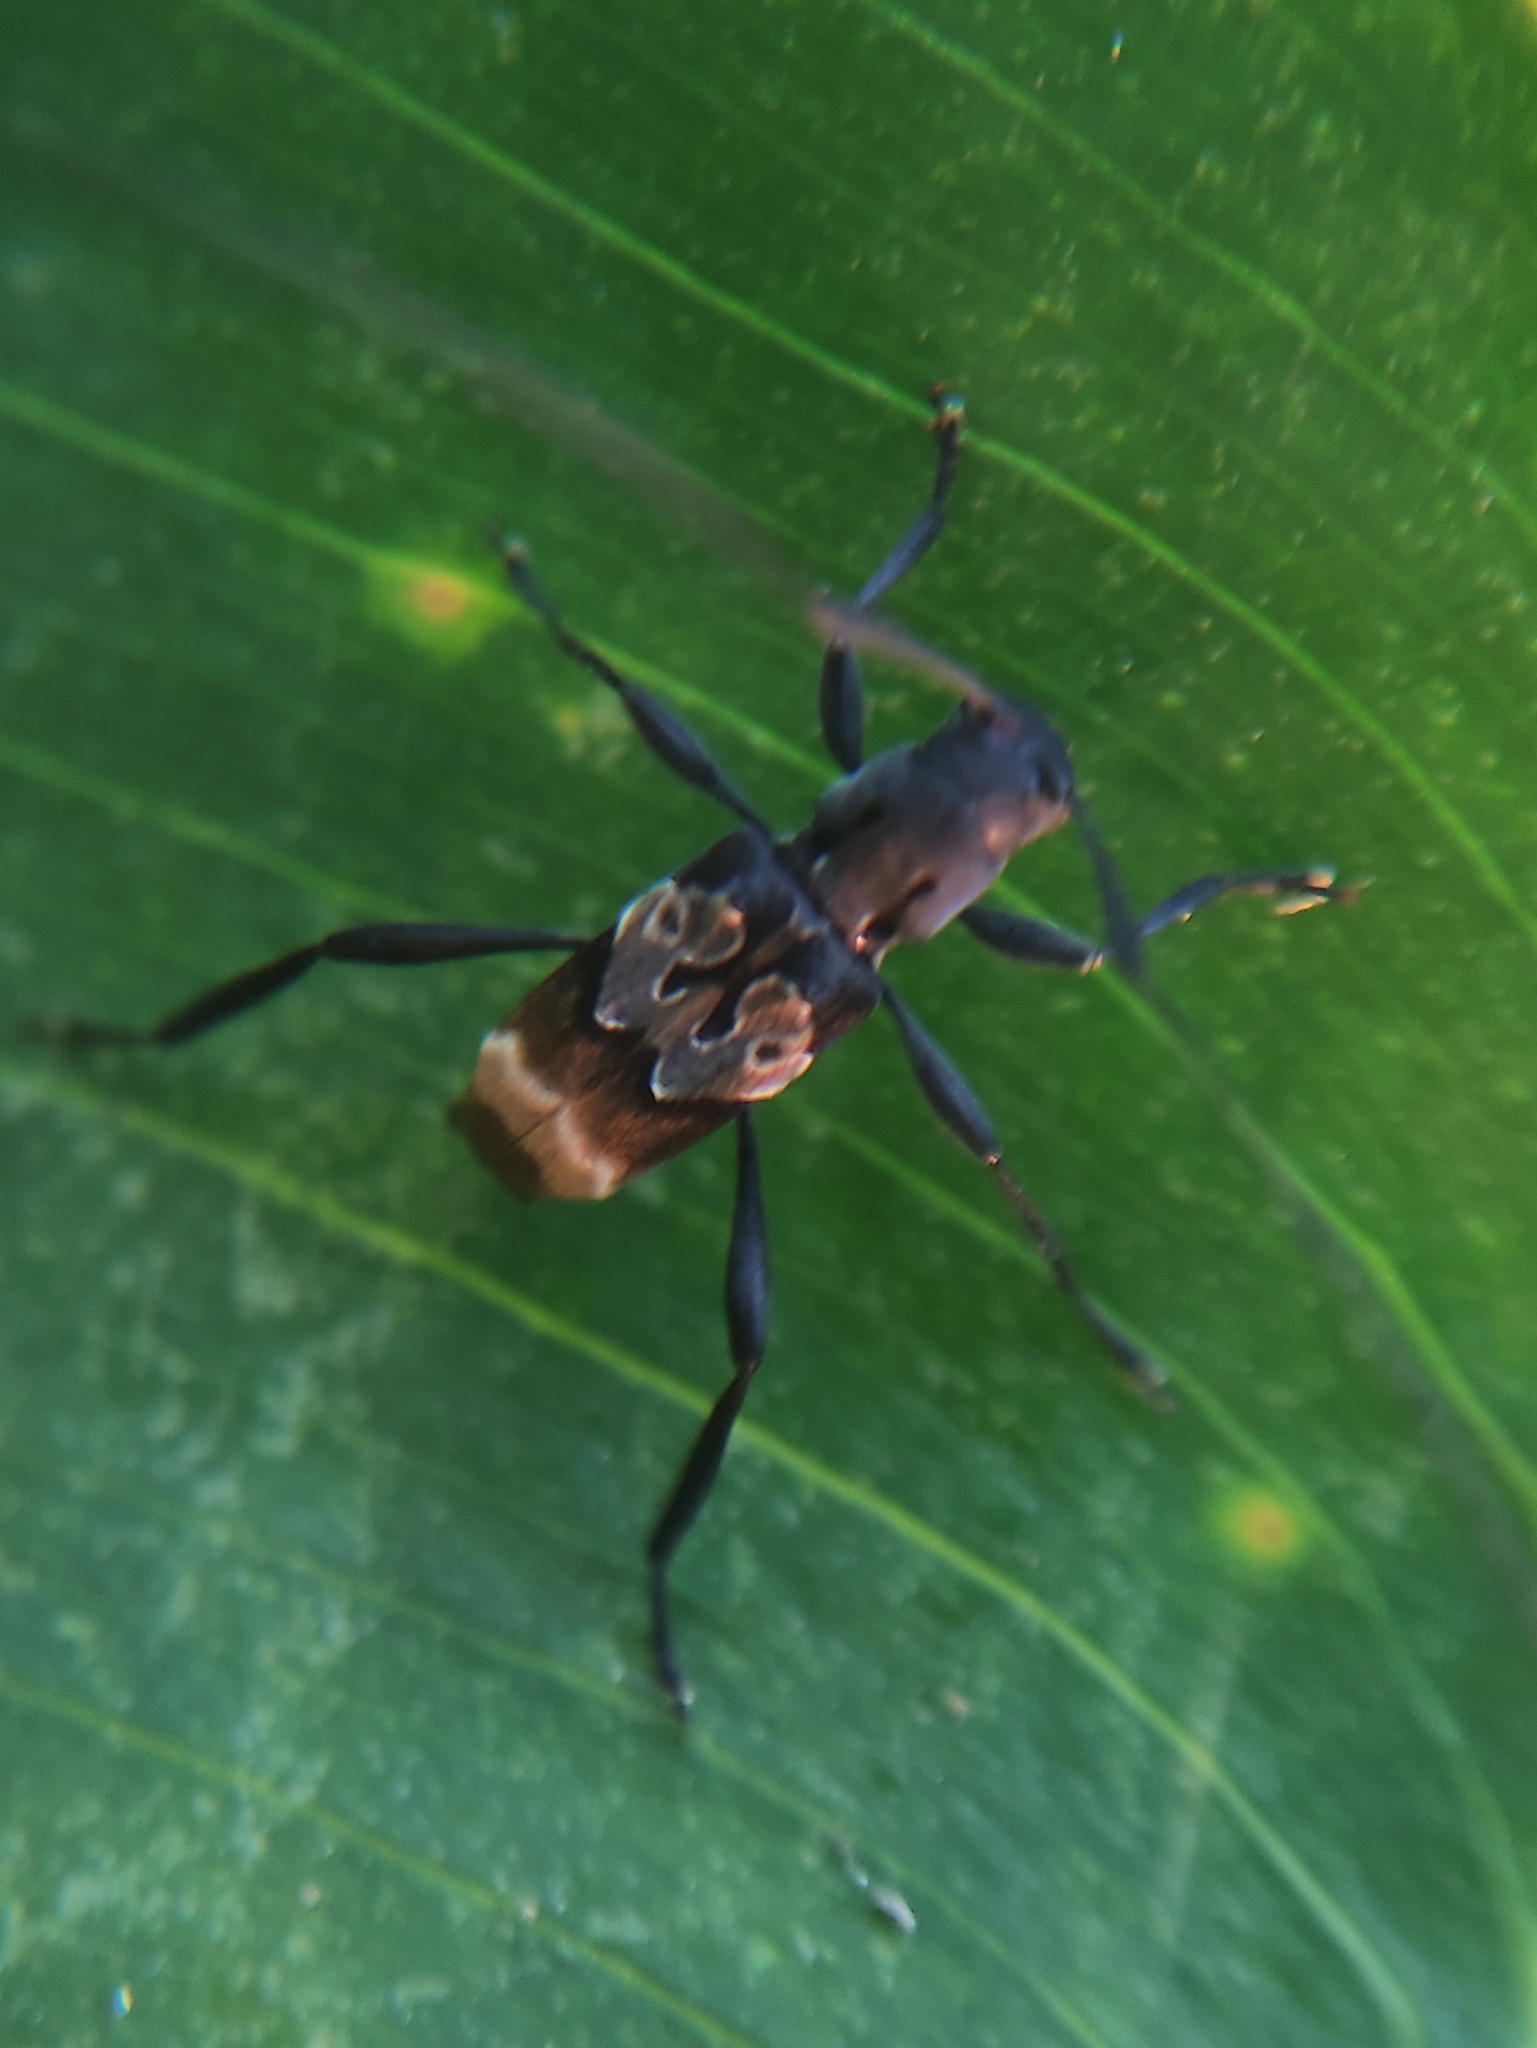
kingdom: Animalia
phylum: Arthropoda
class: Insecta
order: Coleoptera
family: Cerambycidae
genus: Microplia
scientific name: Microplia agilis
